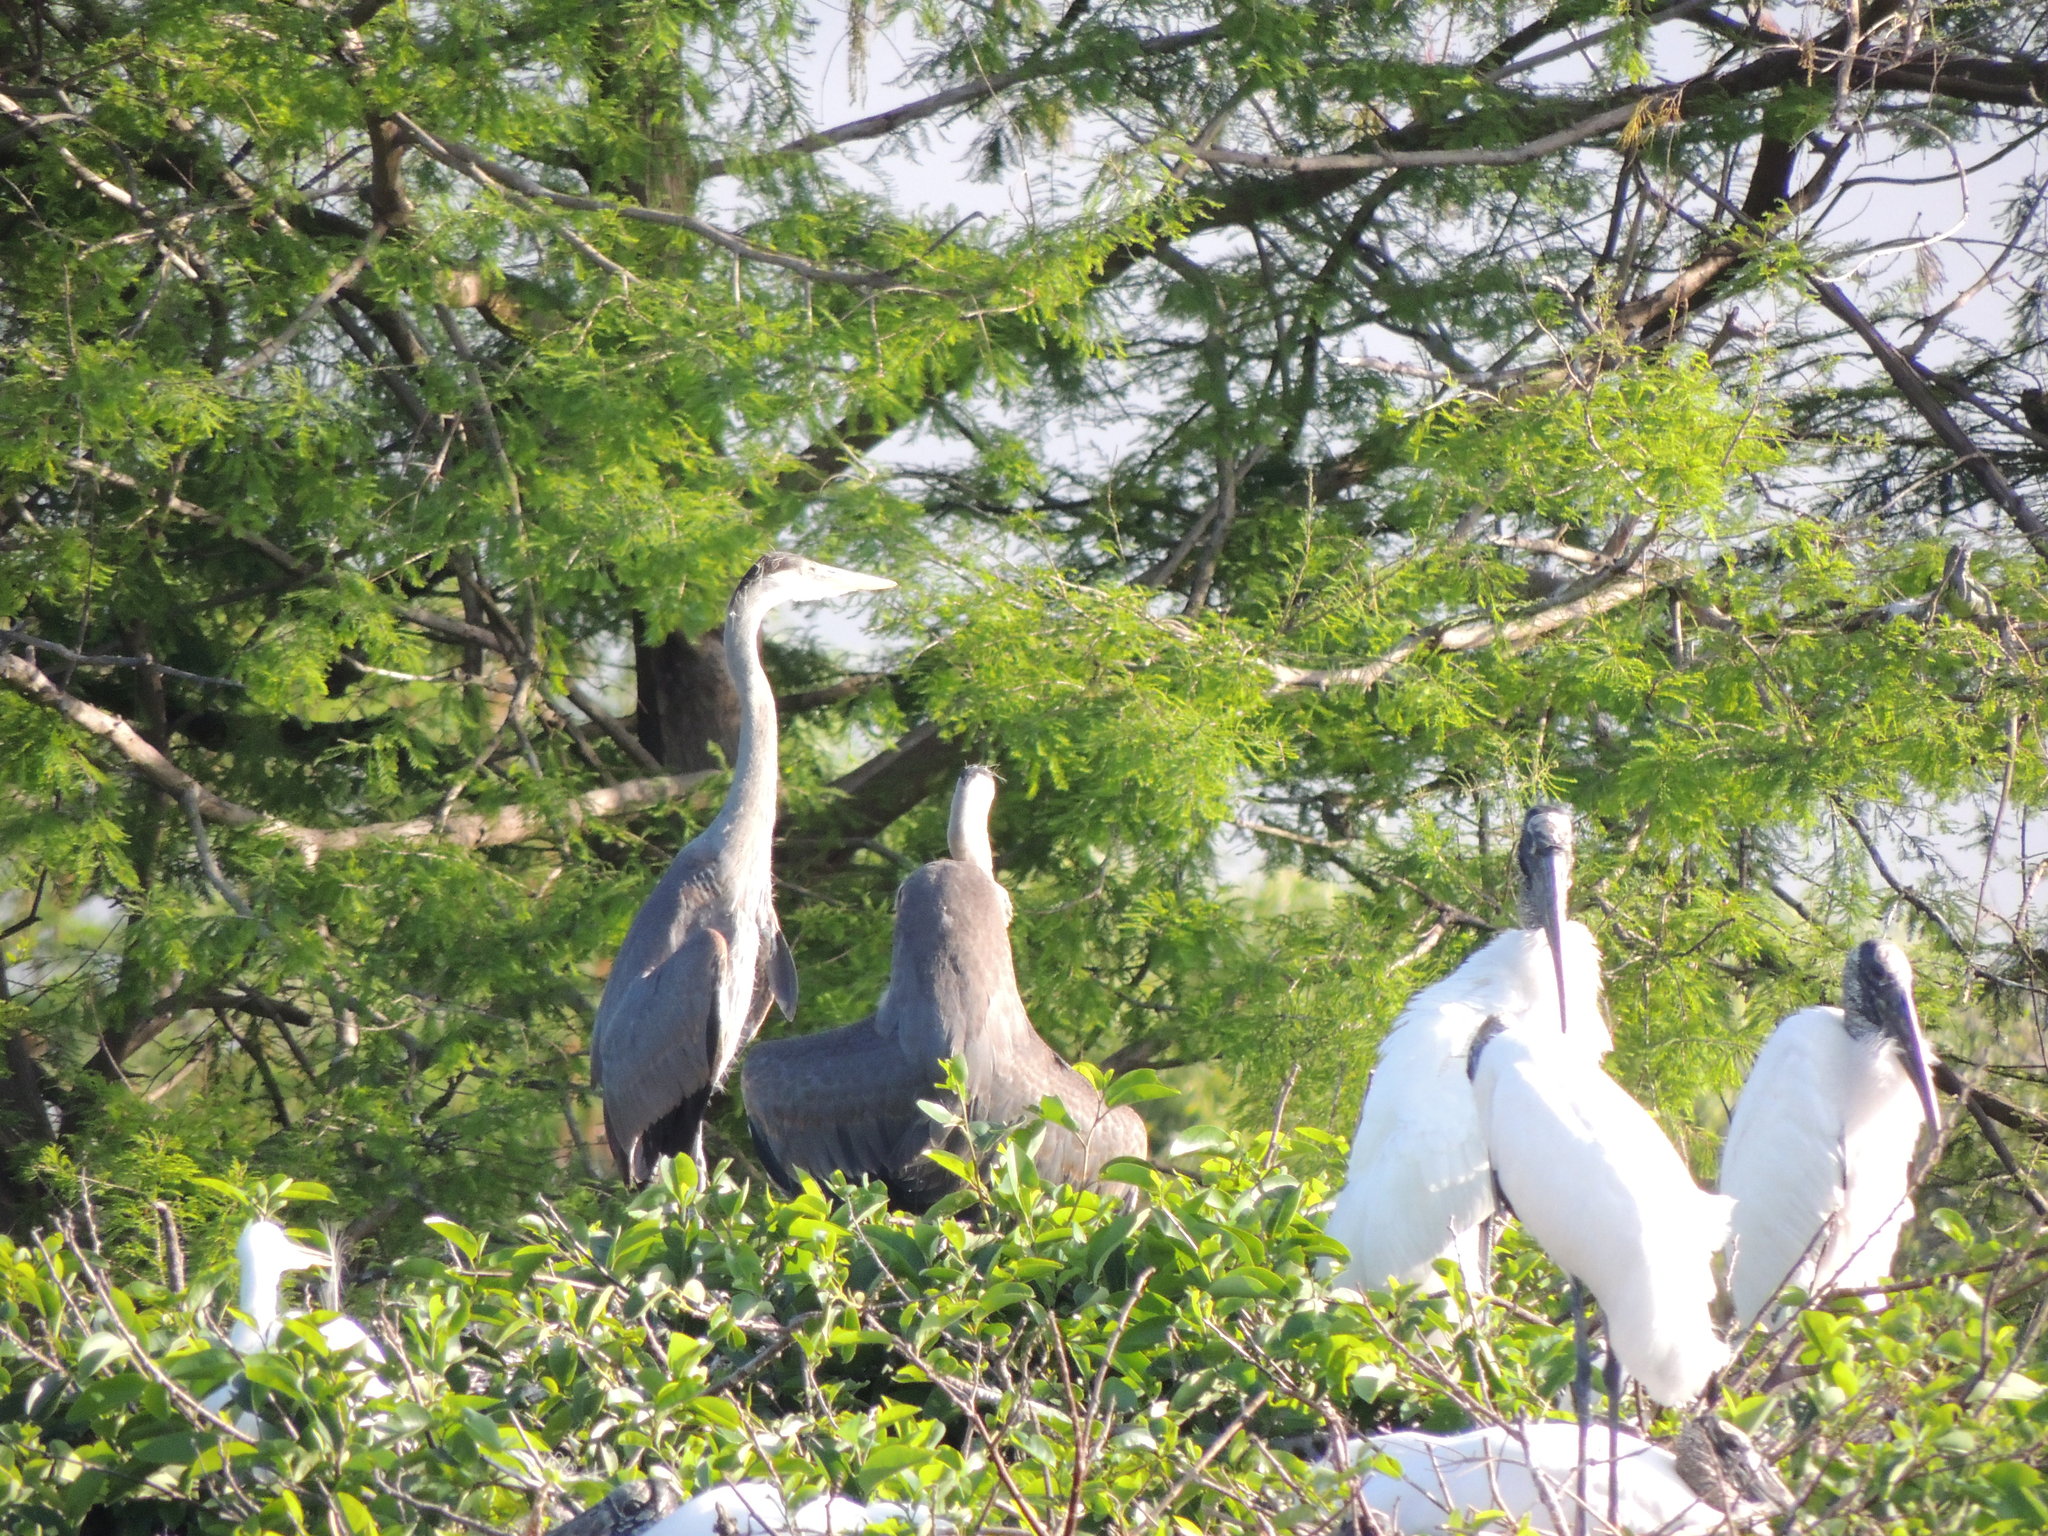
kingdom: Animalia
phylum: Chordata
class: Aves
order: Pelecaniformes
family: Ardeidae
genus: Ardea
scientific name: Ardea herodias
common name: Great blue heron
